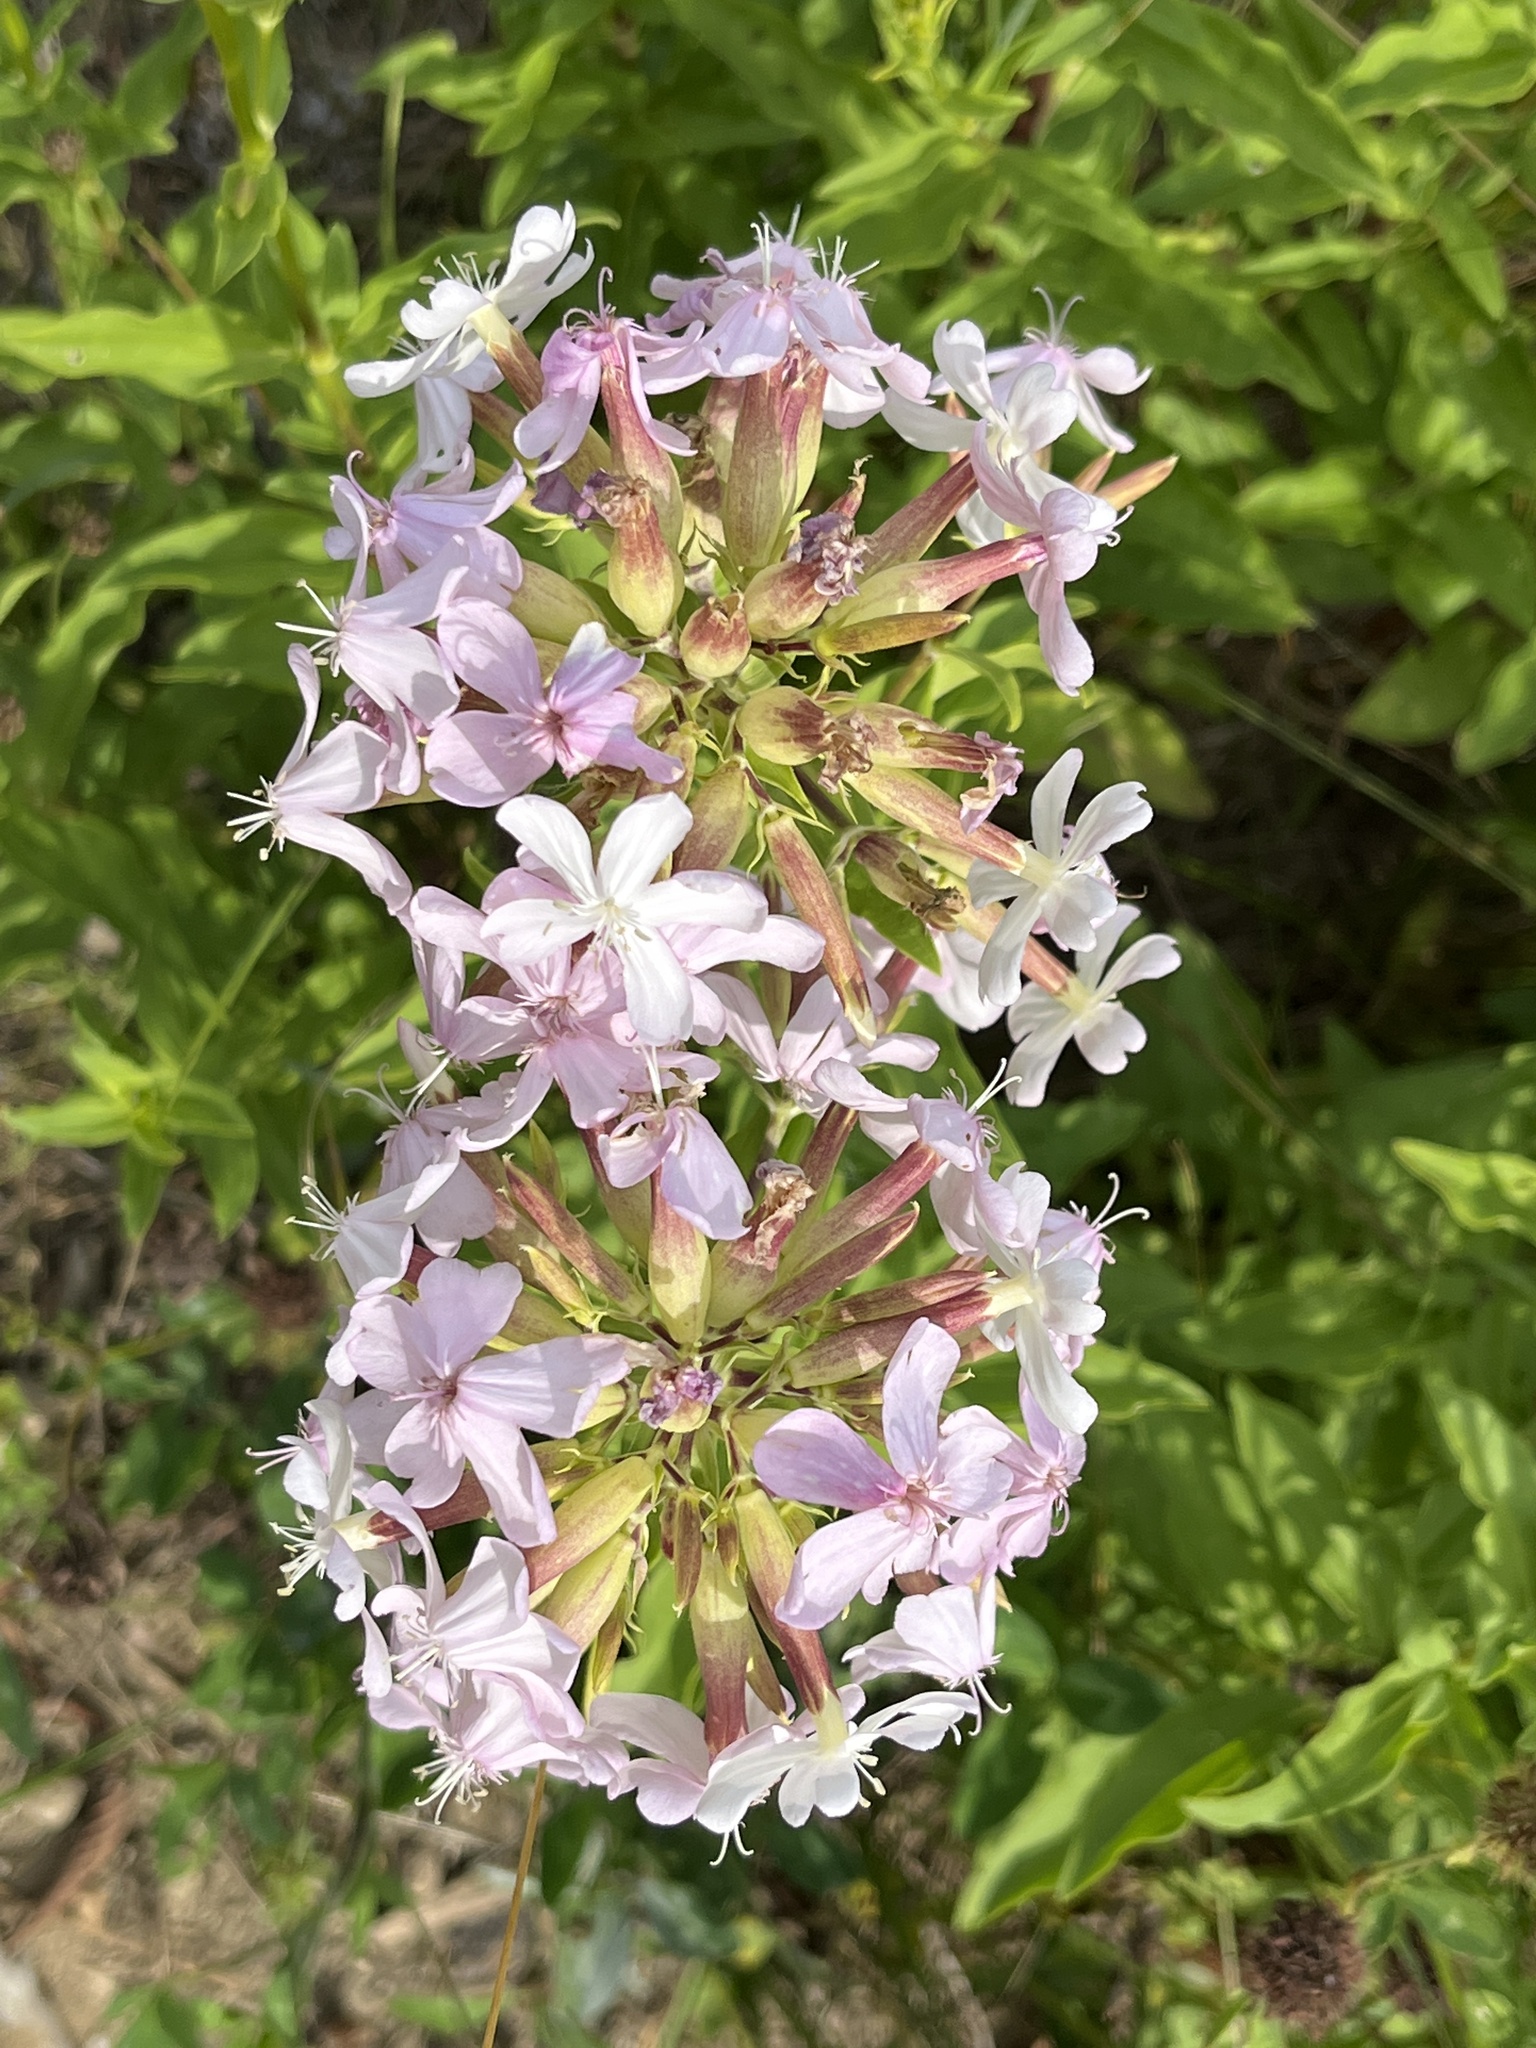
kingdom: Plantae
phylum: Tracheophyta
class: Magnoliopsida
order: Caryophyllales
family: Caryophyllaceae
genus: Saponaria
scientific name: Saponaria officinalis
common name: Soapwort
